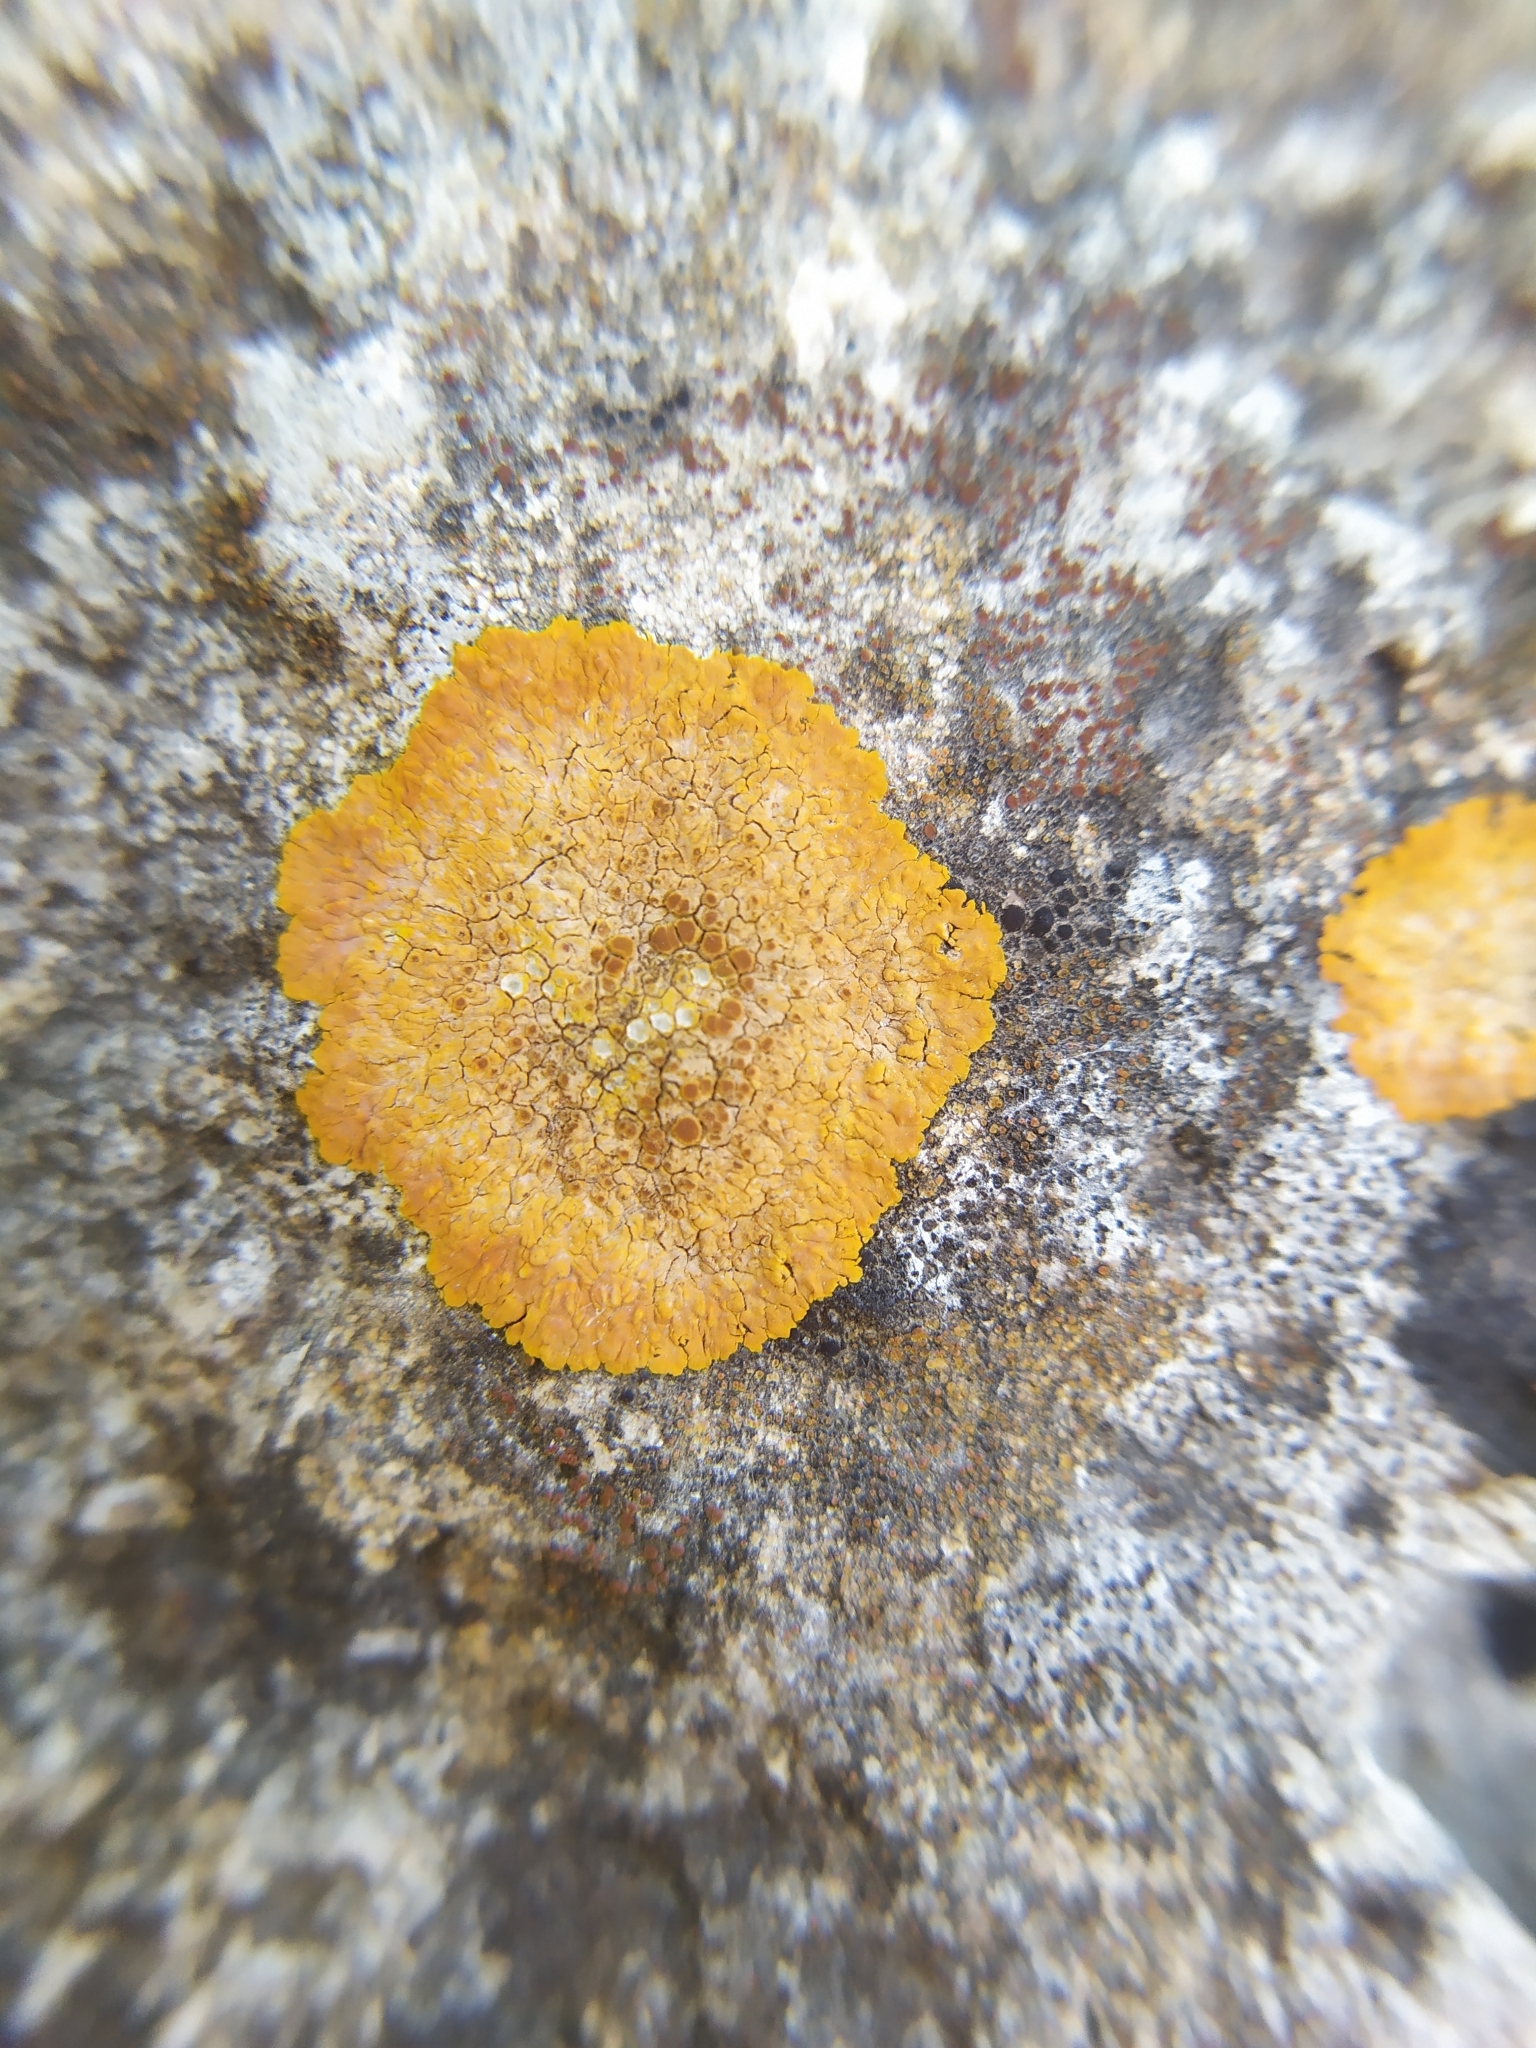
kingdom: Fungi
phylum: Ascomycota
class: Lecanoromycetes
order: Teloschistales
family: Teloschistaceae
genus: Variospora
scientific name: Variospora aurantia
